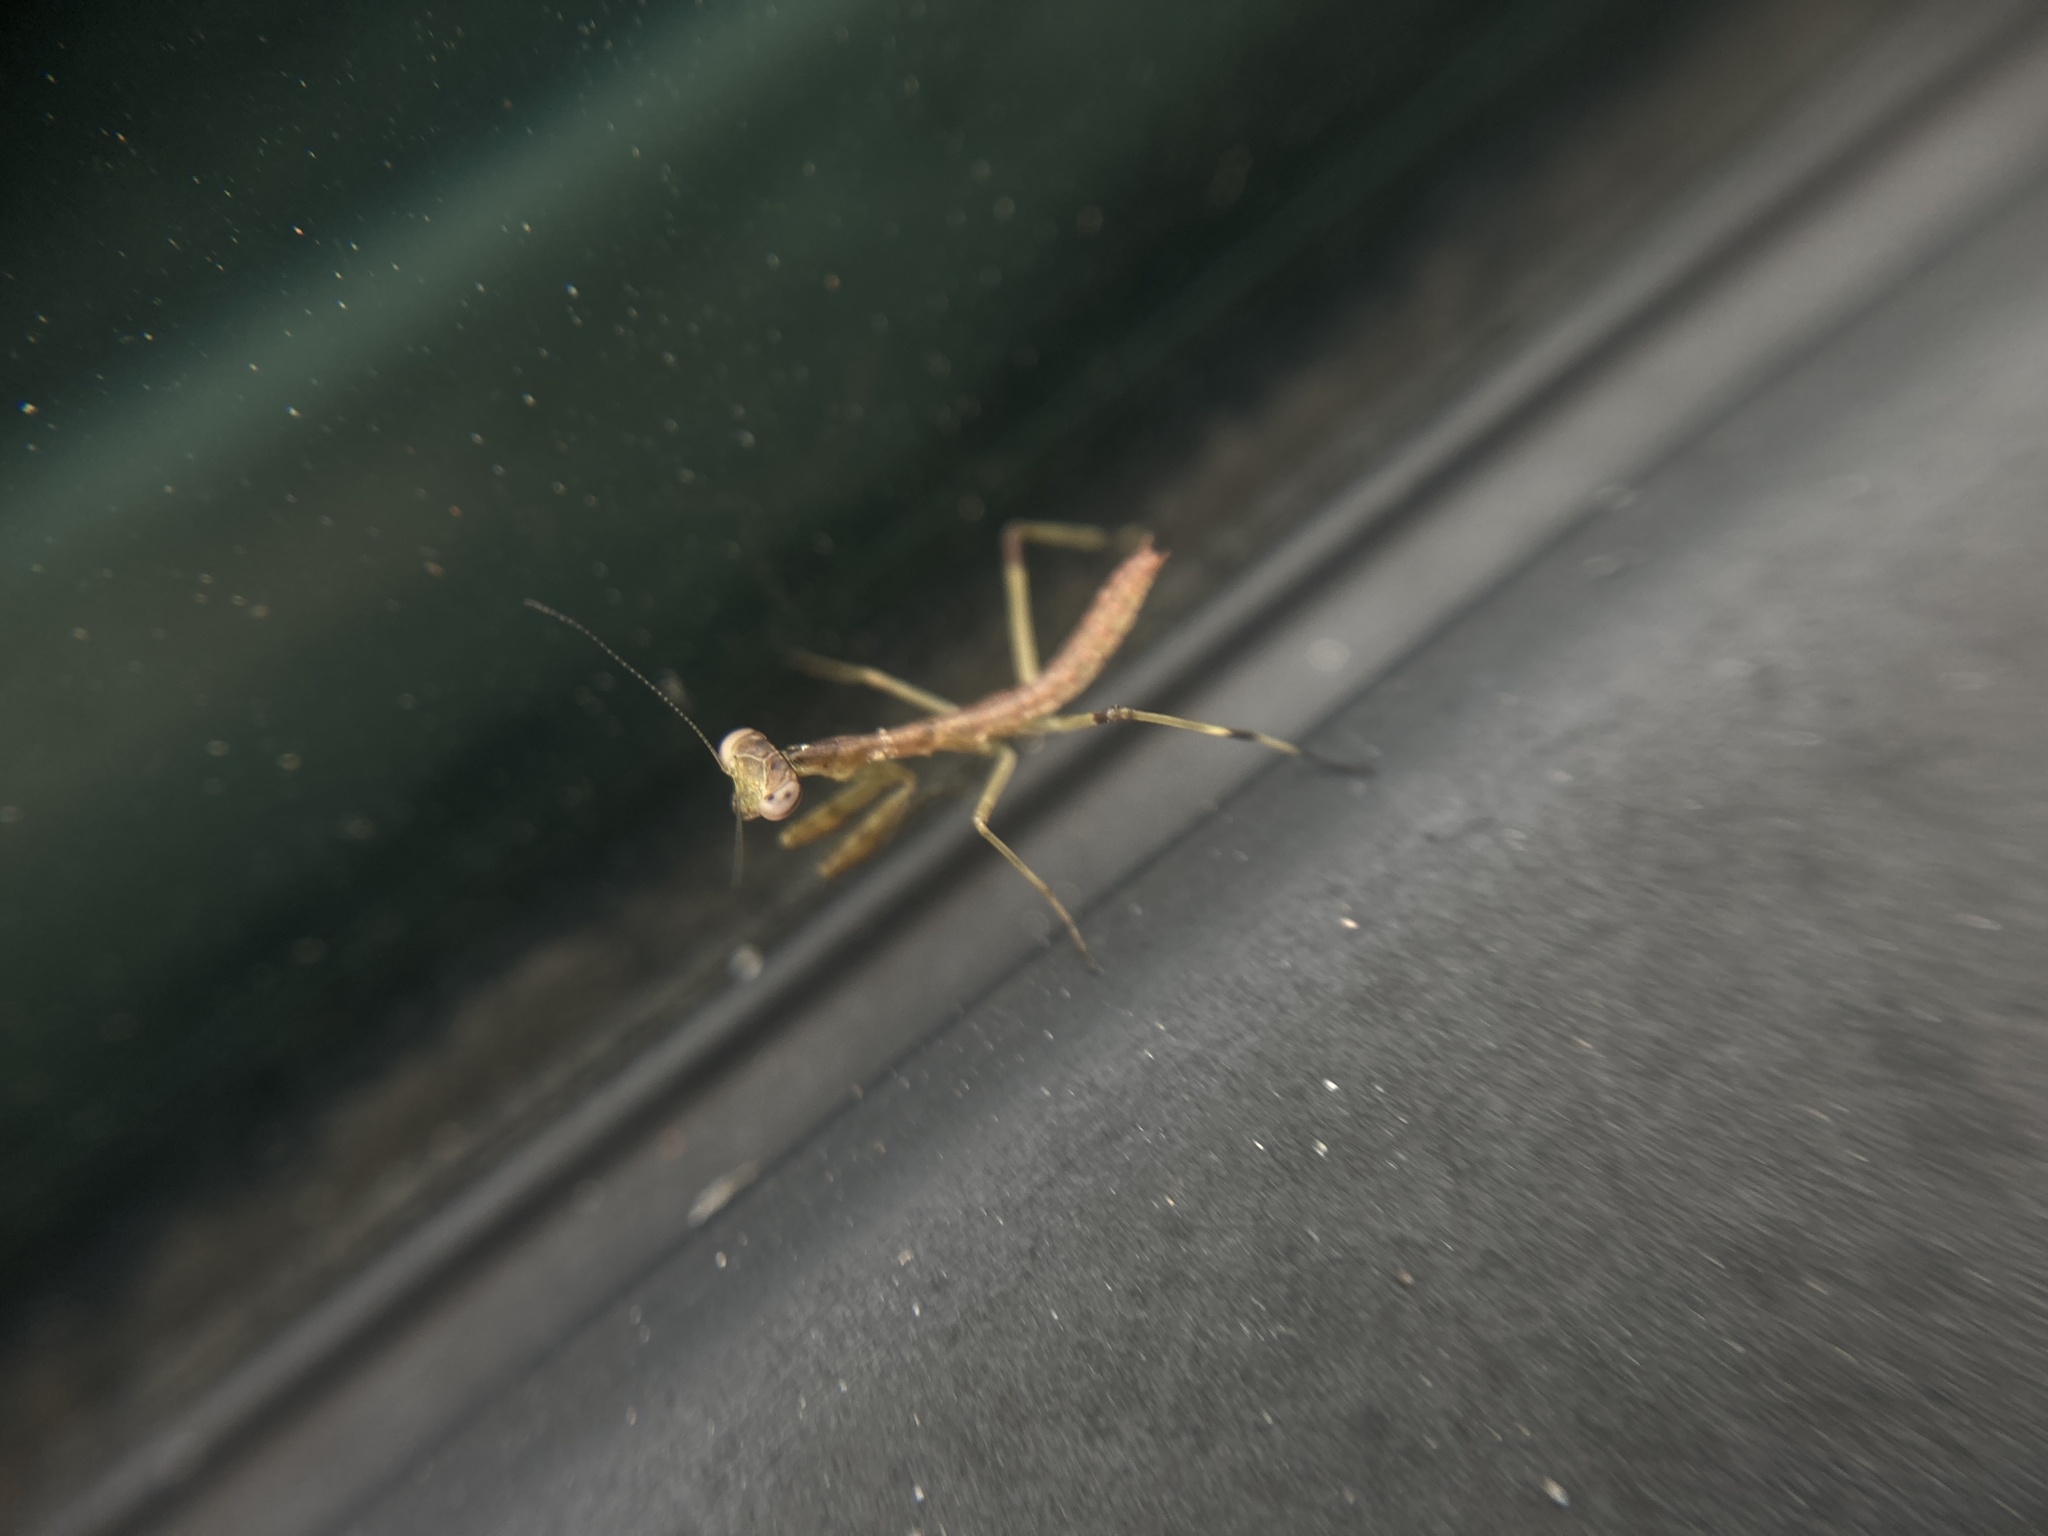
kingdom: Animalia
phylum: Arthropoda
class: Insecta
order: Mantodea
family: Mantidae
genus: Stagmomantis
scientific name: Stagmomantis carolina
